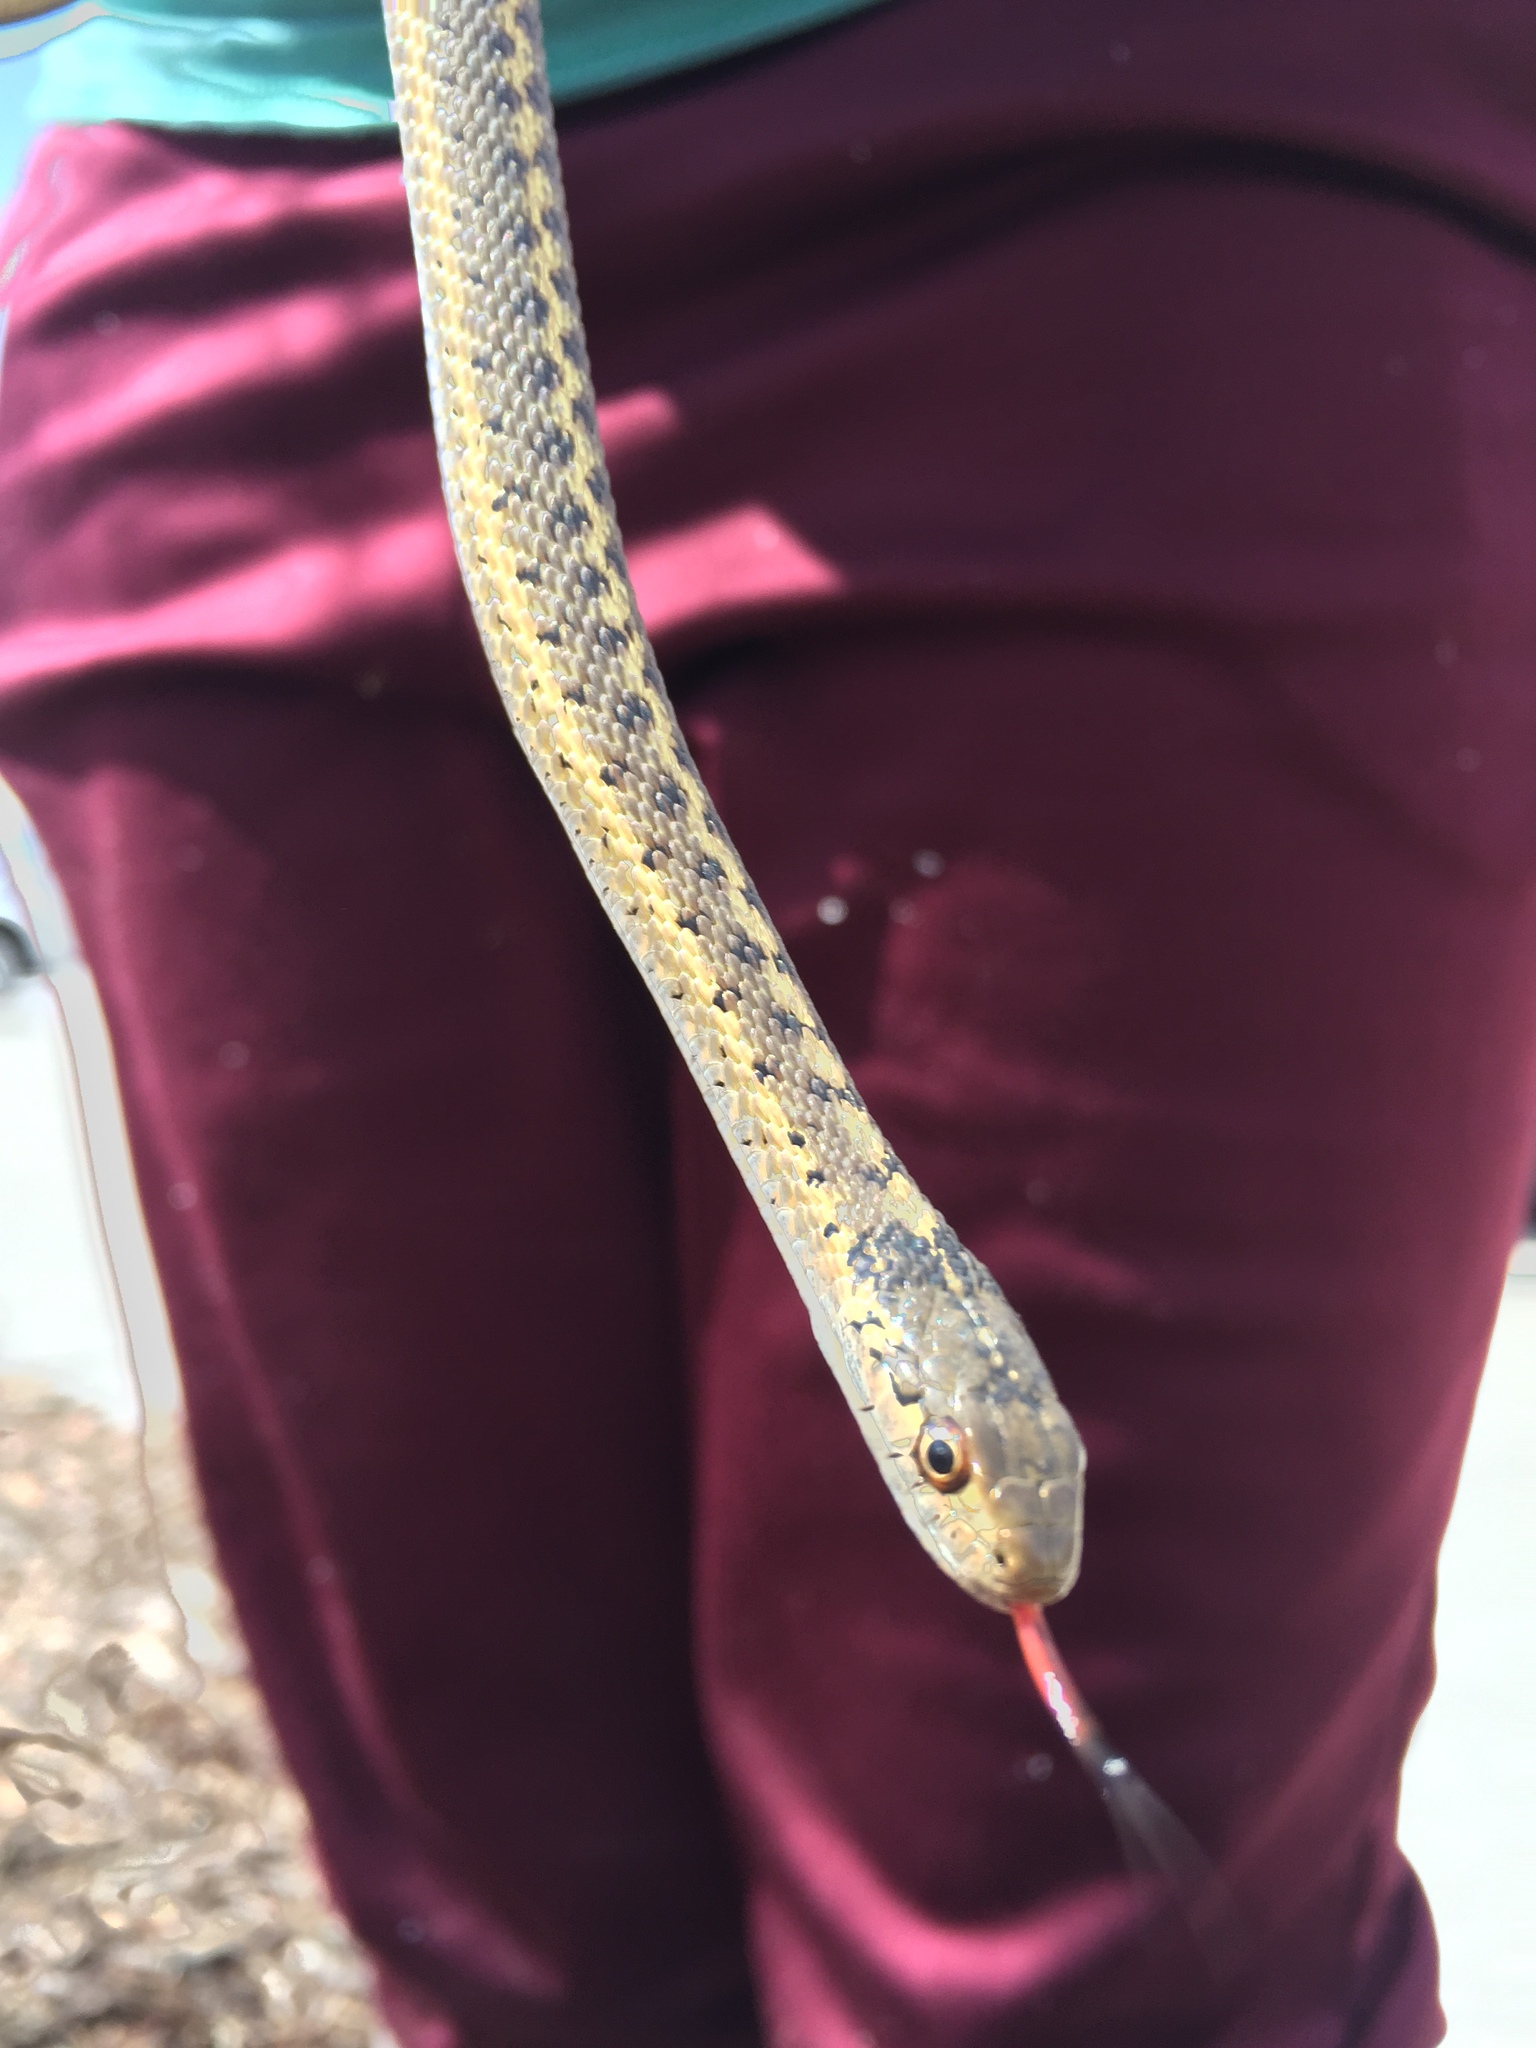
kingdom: Animalia
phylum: Chordata
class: Squamata
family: Colubridae
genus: Thamnophis
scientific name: Thamnophis elegans
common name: Western terrestrial garter snake
